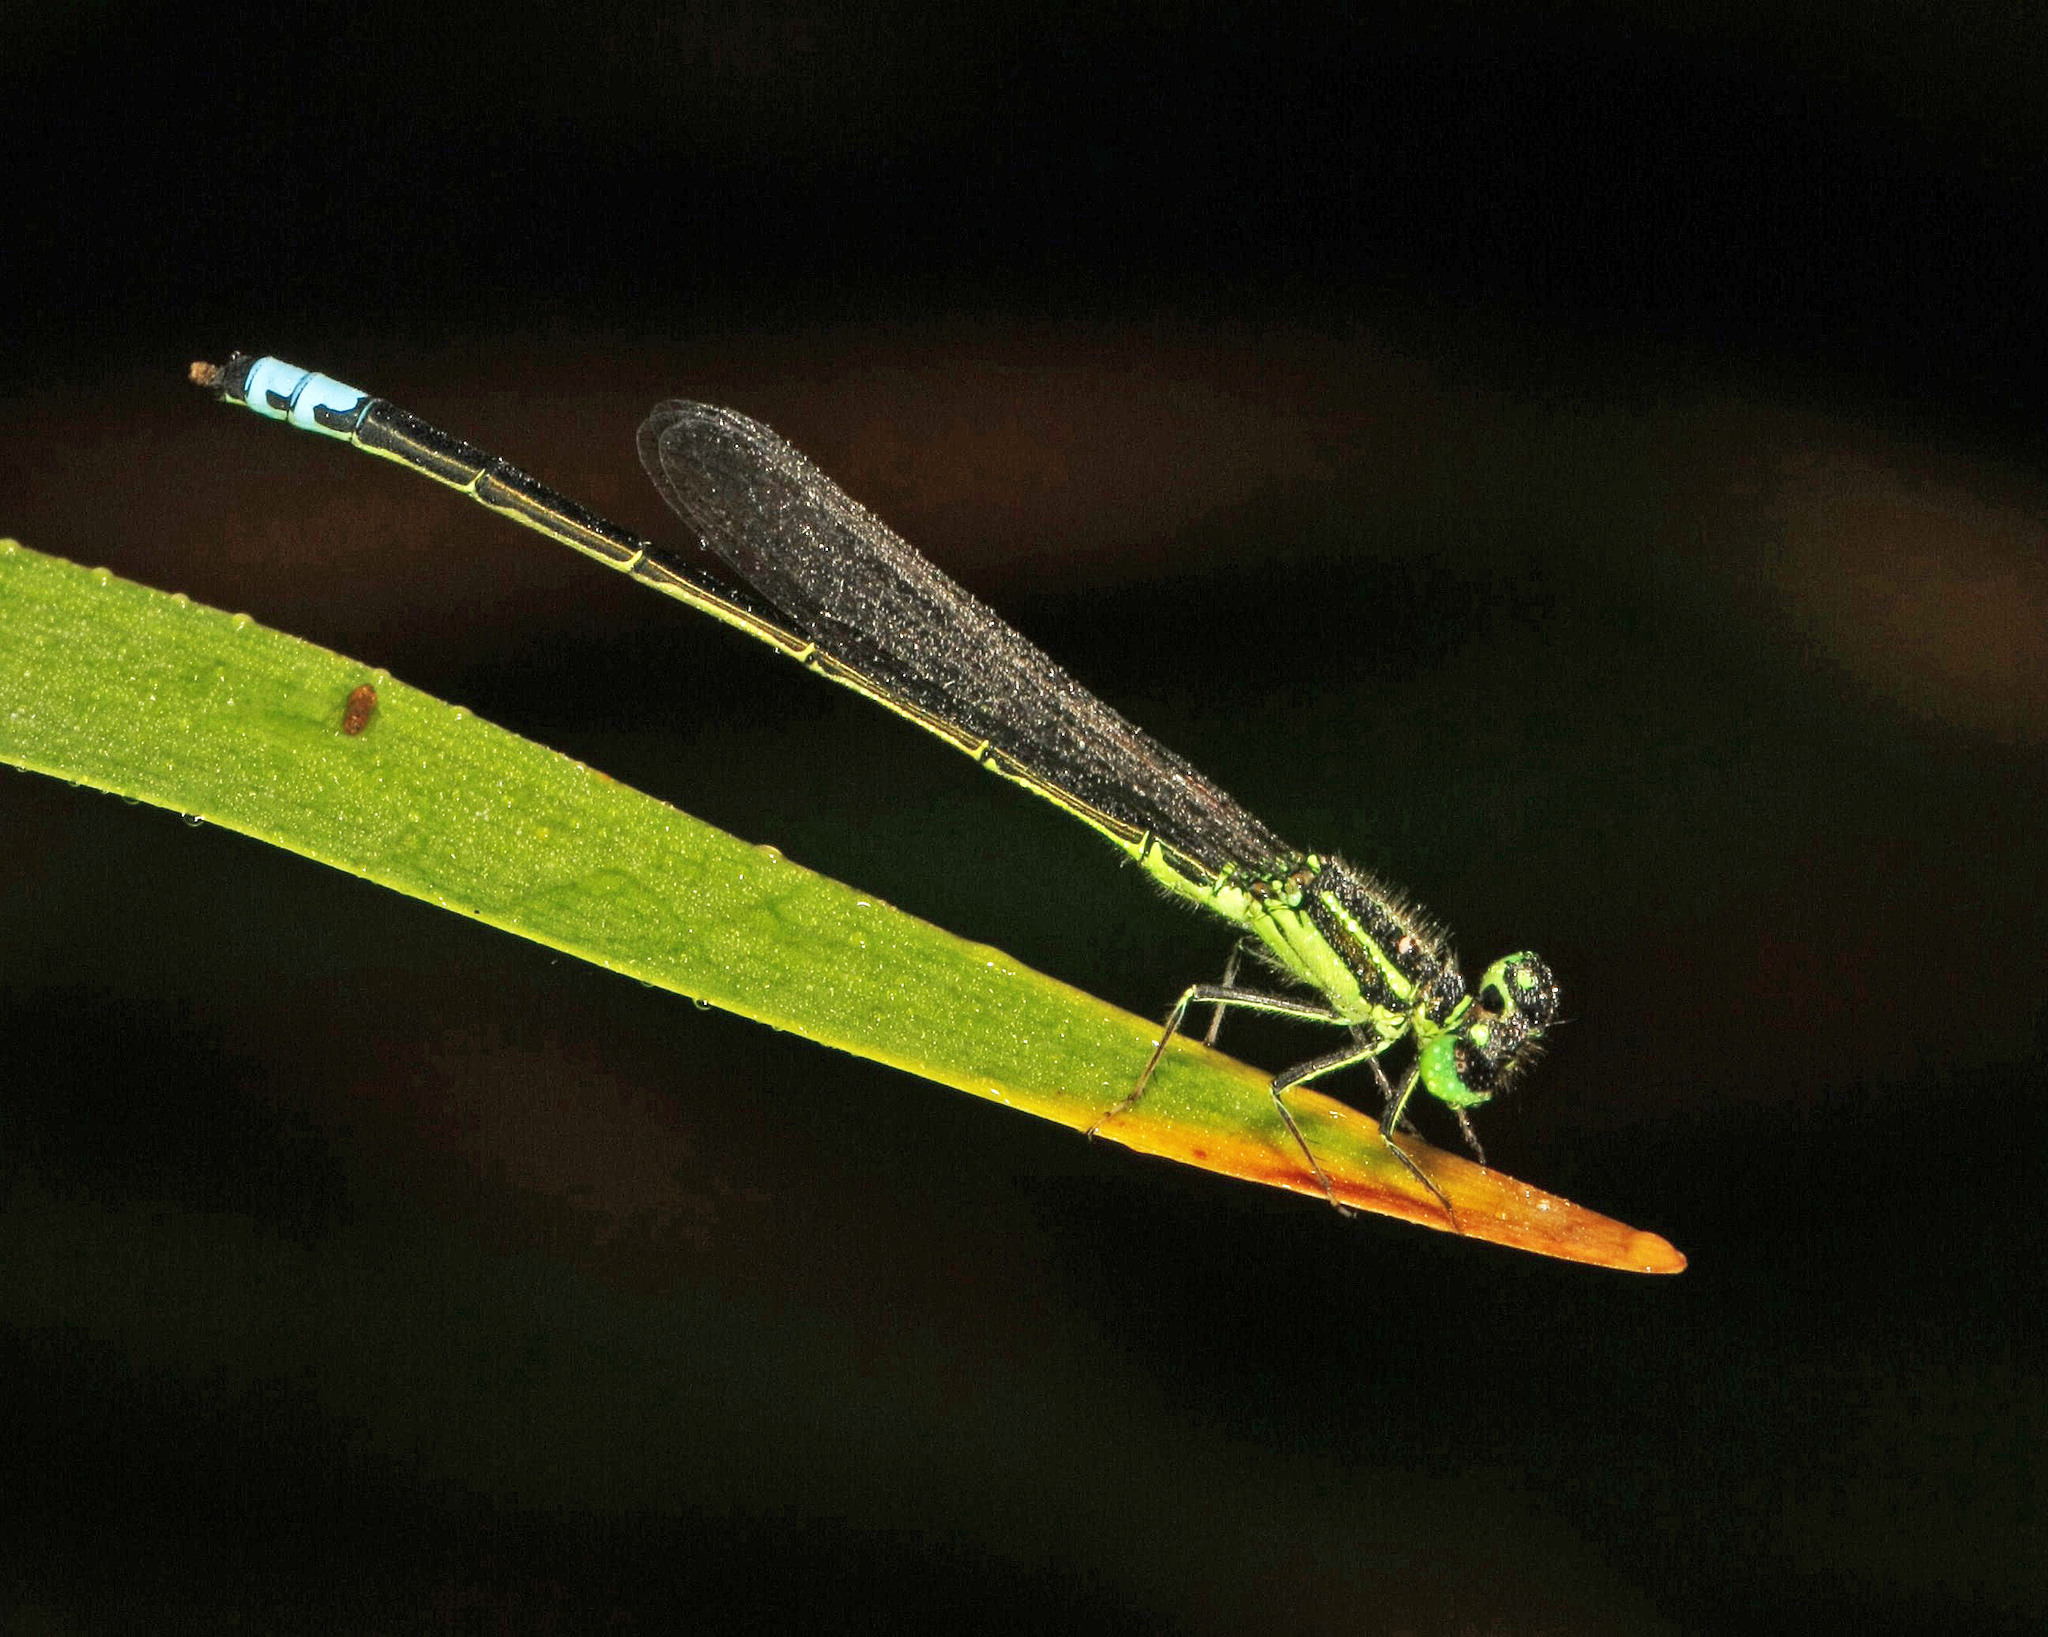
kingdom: Animalia
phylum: Arthropoda
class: Insecta
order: Odonata
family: Coenagrionidae
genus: Ischnura
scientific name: Ischnura verticalis
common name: Eastern forktail
